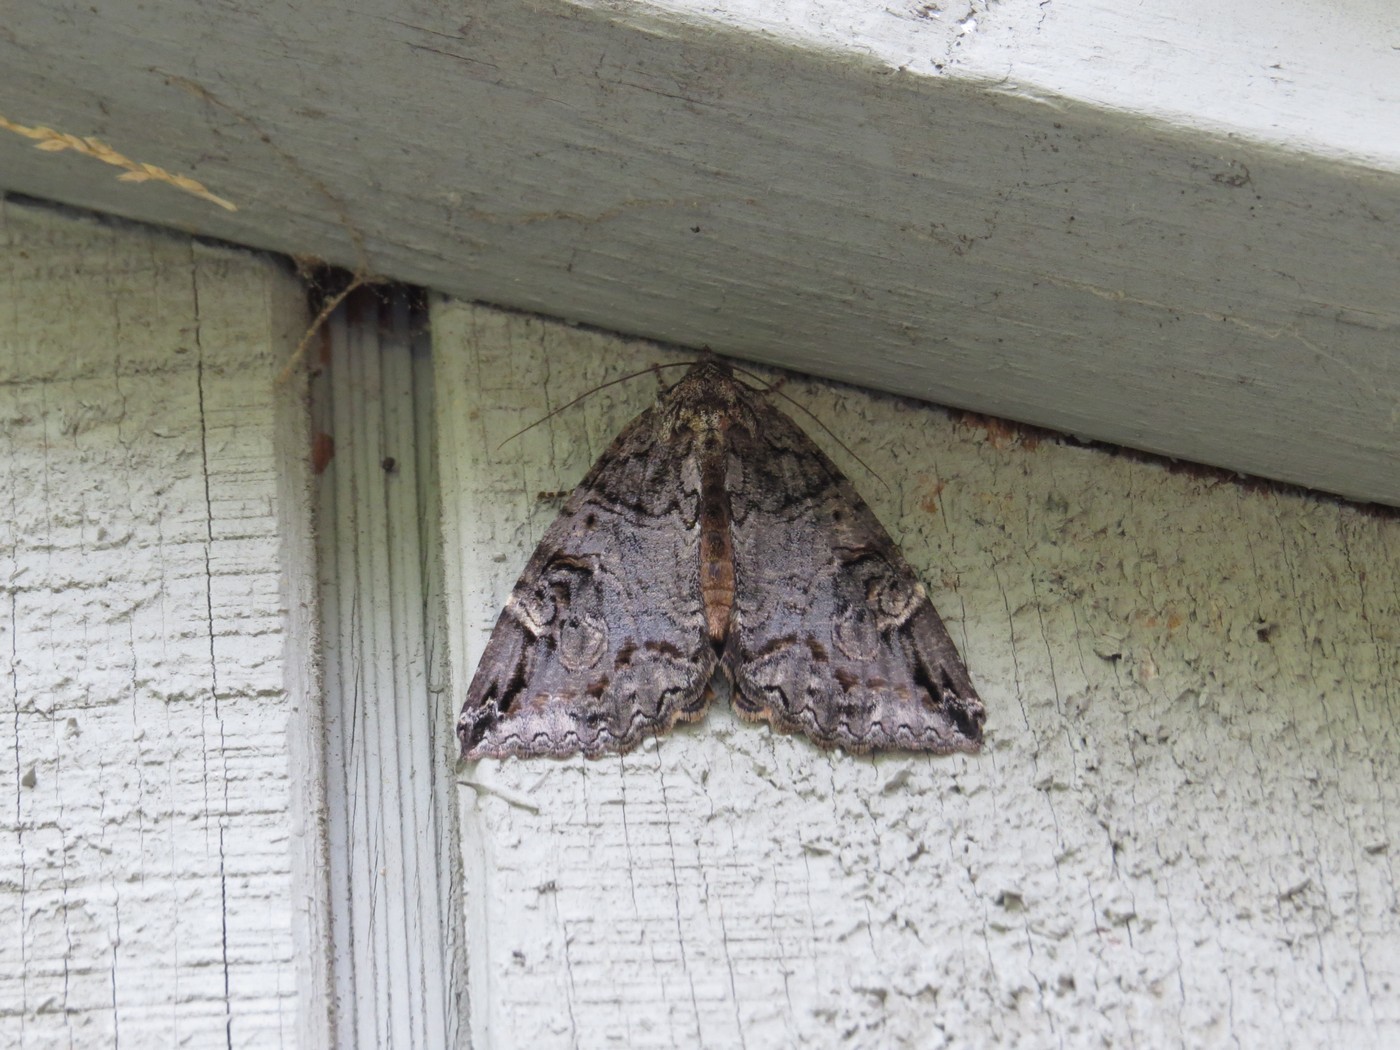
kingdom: Animalia
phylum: Arthropoda
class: Insecta
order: Lepidoptera
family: Erebidae
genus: Euparthenos
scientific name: Euparthenos nubilis
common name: Locust underwing
